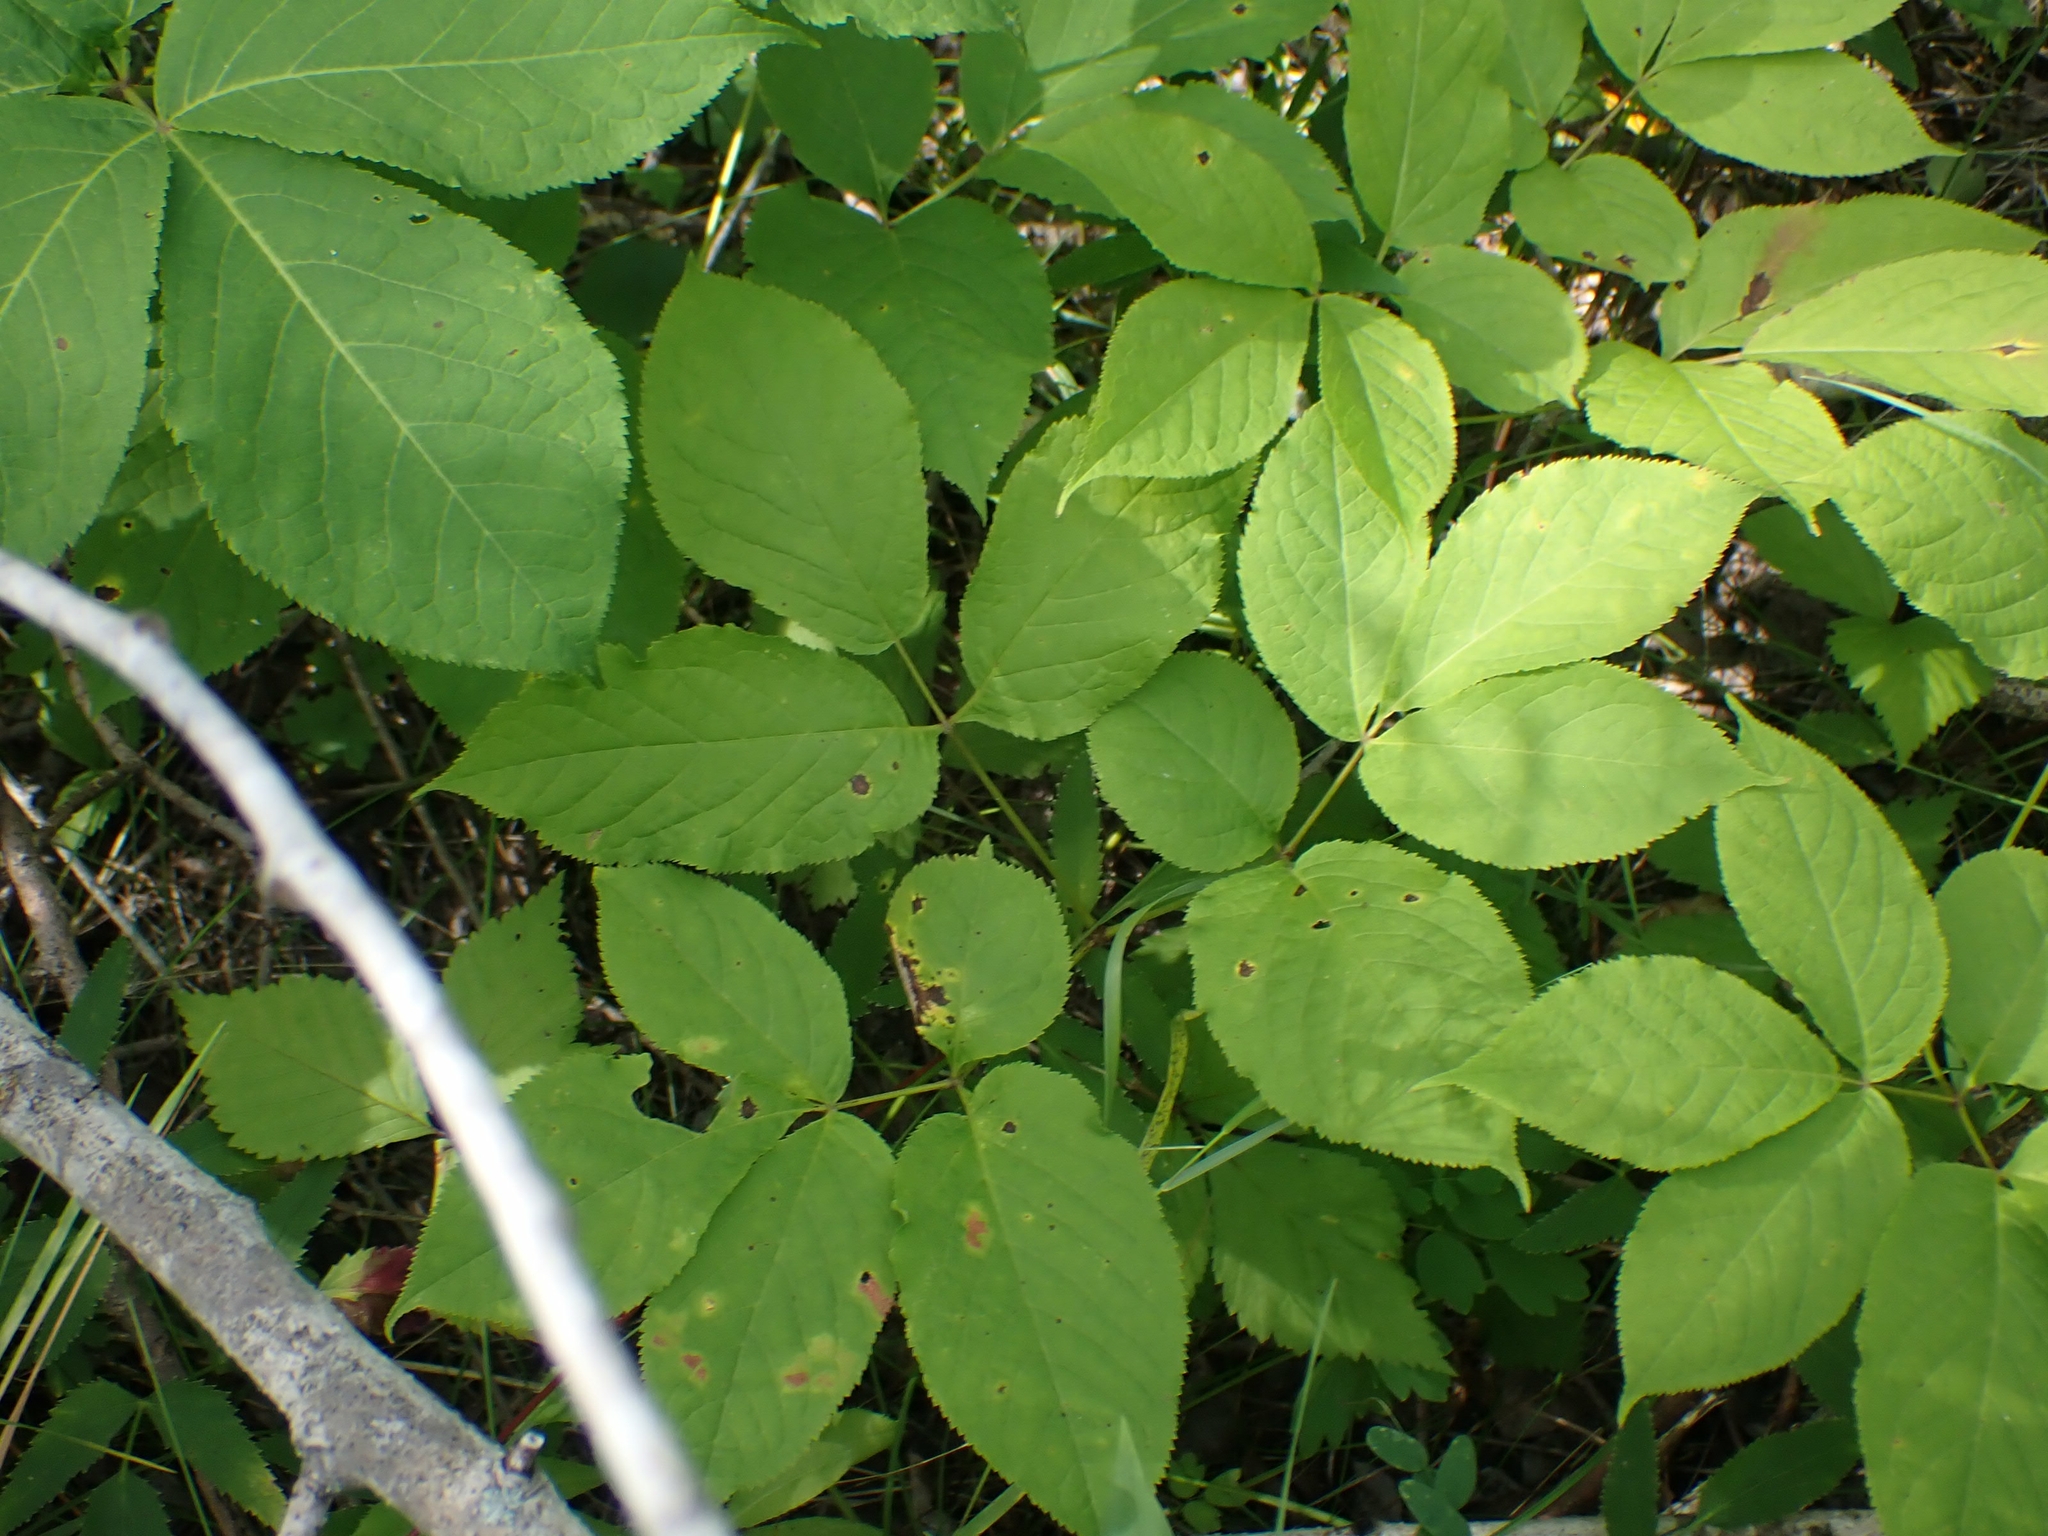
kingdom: Plantae
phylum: Tracheophyta
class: Magnoliopsida
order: Apiales
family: Araliaceae
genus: Aralia
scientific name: Aralia nudicaulis
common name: Wild sarsaparilla
